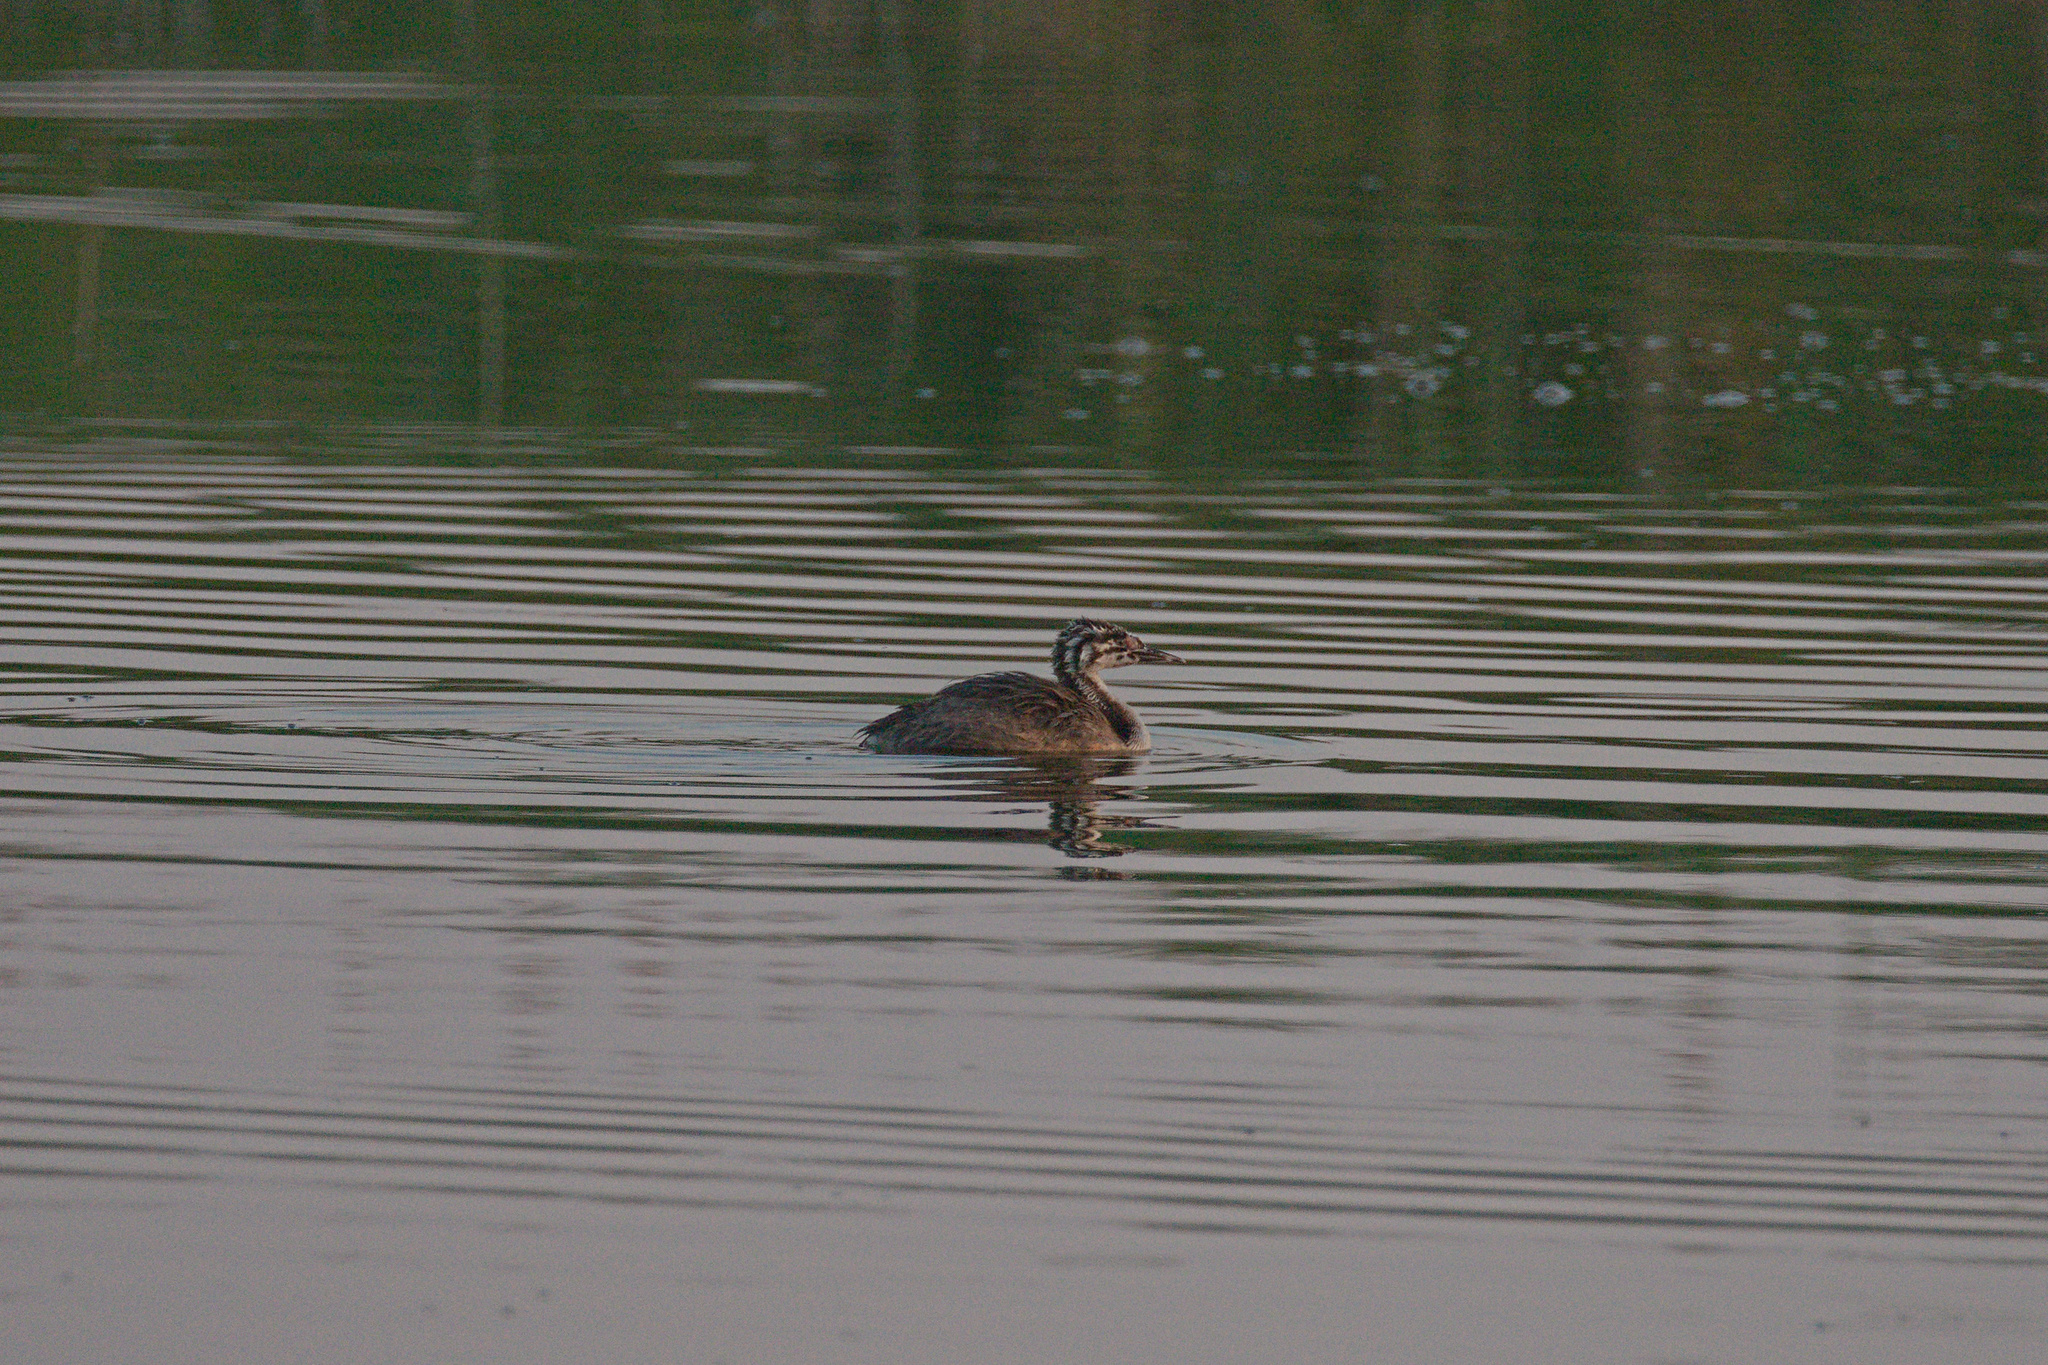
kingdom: Animalia
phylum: Chordata
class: Aves
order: Podicipediformes
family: Podicipedidae
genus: Podiceps
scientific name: Podiceps cristatus
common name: Great crested grebe
